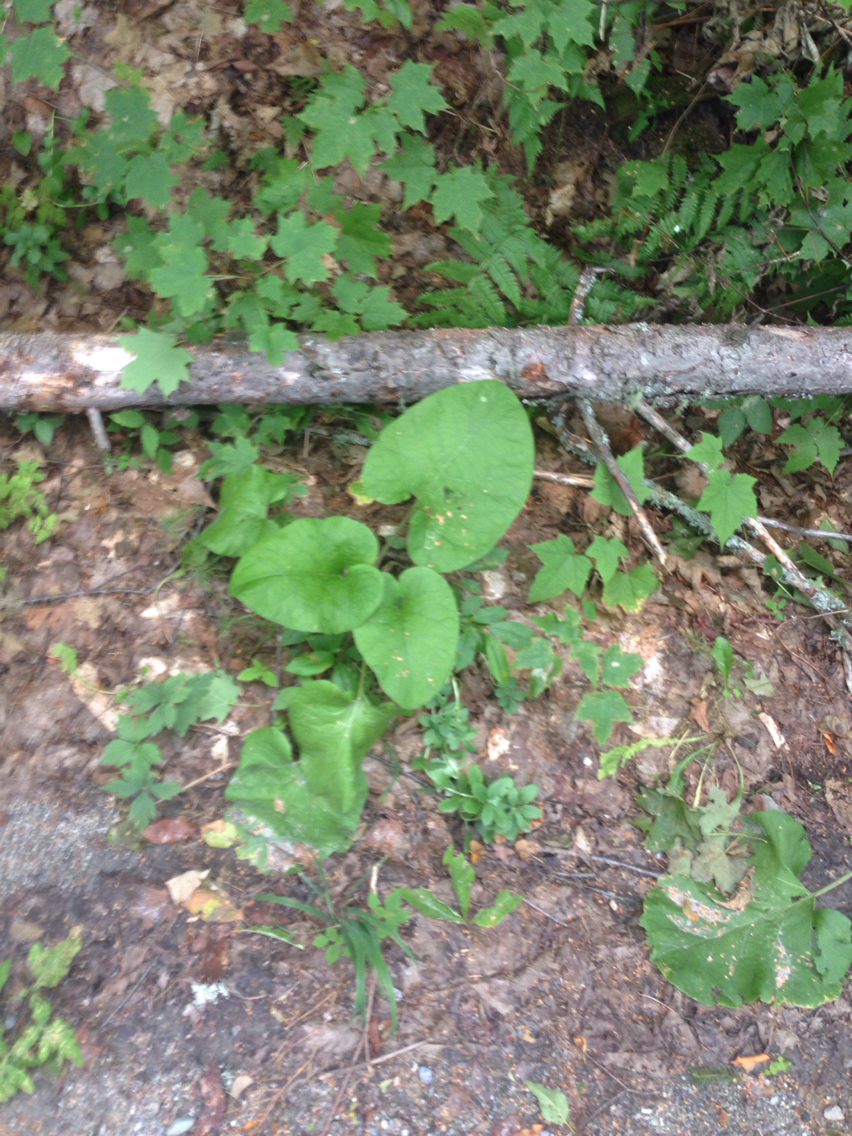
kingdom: Plantae
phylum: Tracheophyta
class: Magnoliopsida
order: Asterales
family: Asteraceae
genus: Arctium
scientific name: Arctium lappa
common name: Greater burdock
